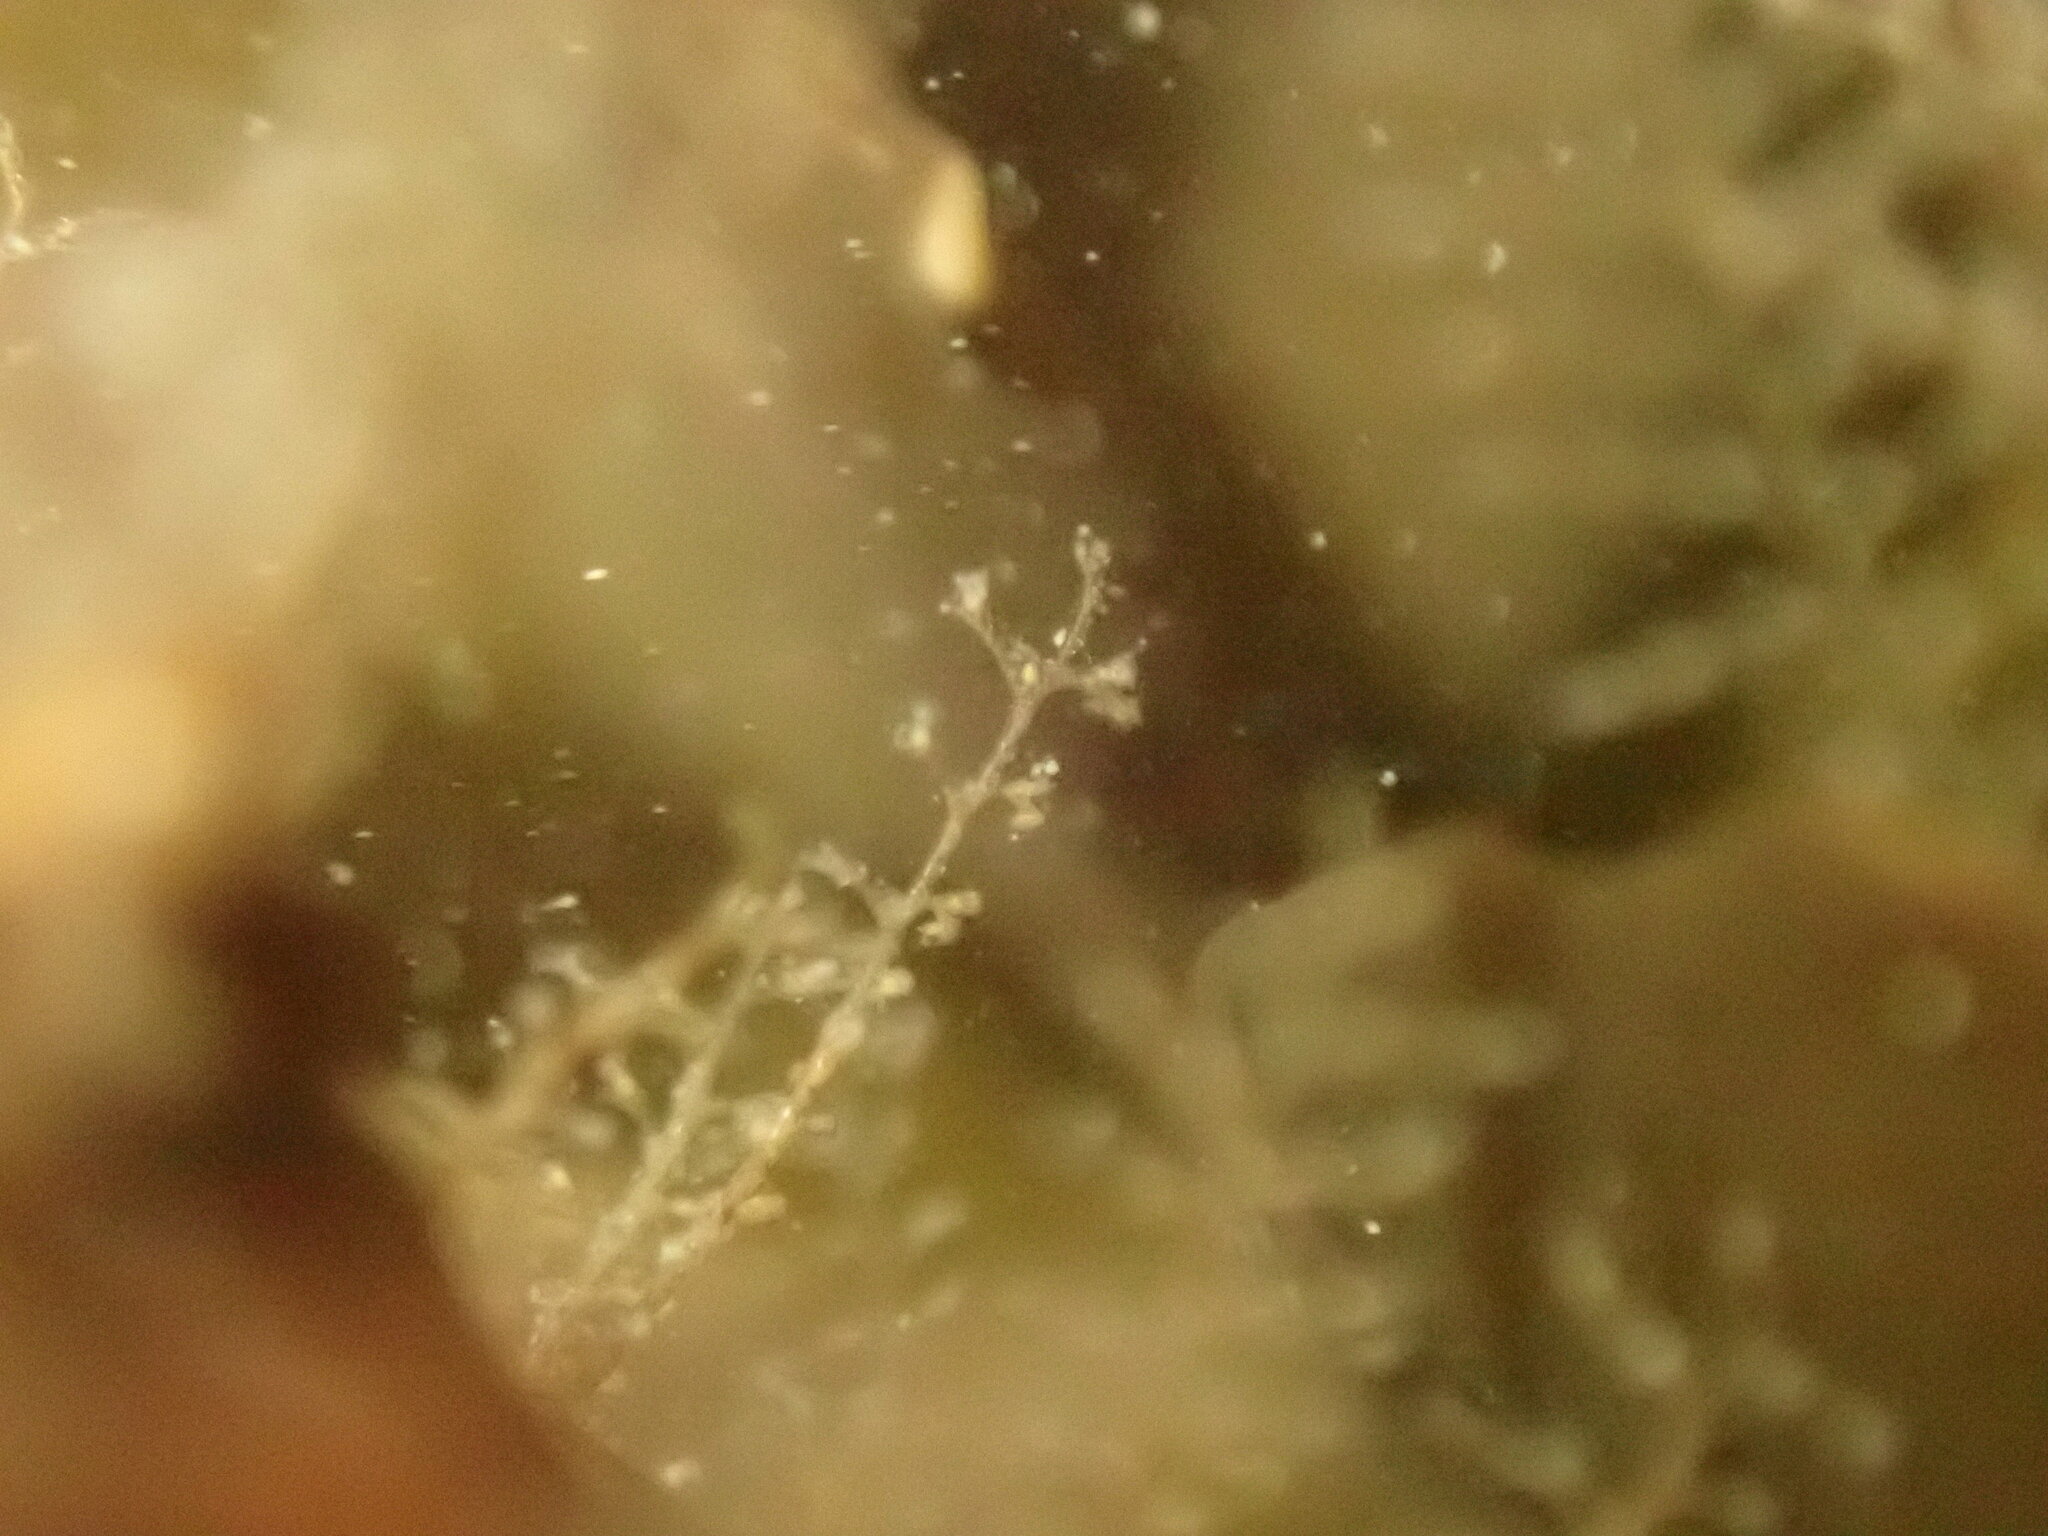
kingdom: Animalia
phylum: Cnidaria
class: Hydrozoa
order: Leptothecata
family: Kirchenpaueriidae
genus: Kirchenpaueria
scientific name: Kirchenpaueria halecioides
